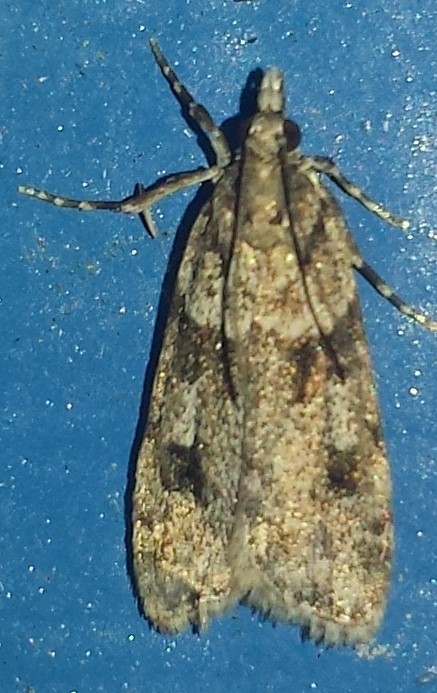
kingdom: Animalia
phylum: Arthropoda
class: Insecta
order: Lepidoptera
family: Crambidae
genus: Scoparia
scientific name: Scoparia biplagialis
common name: Double-striped scoparia moth
